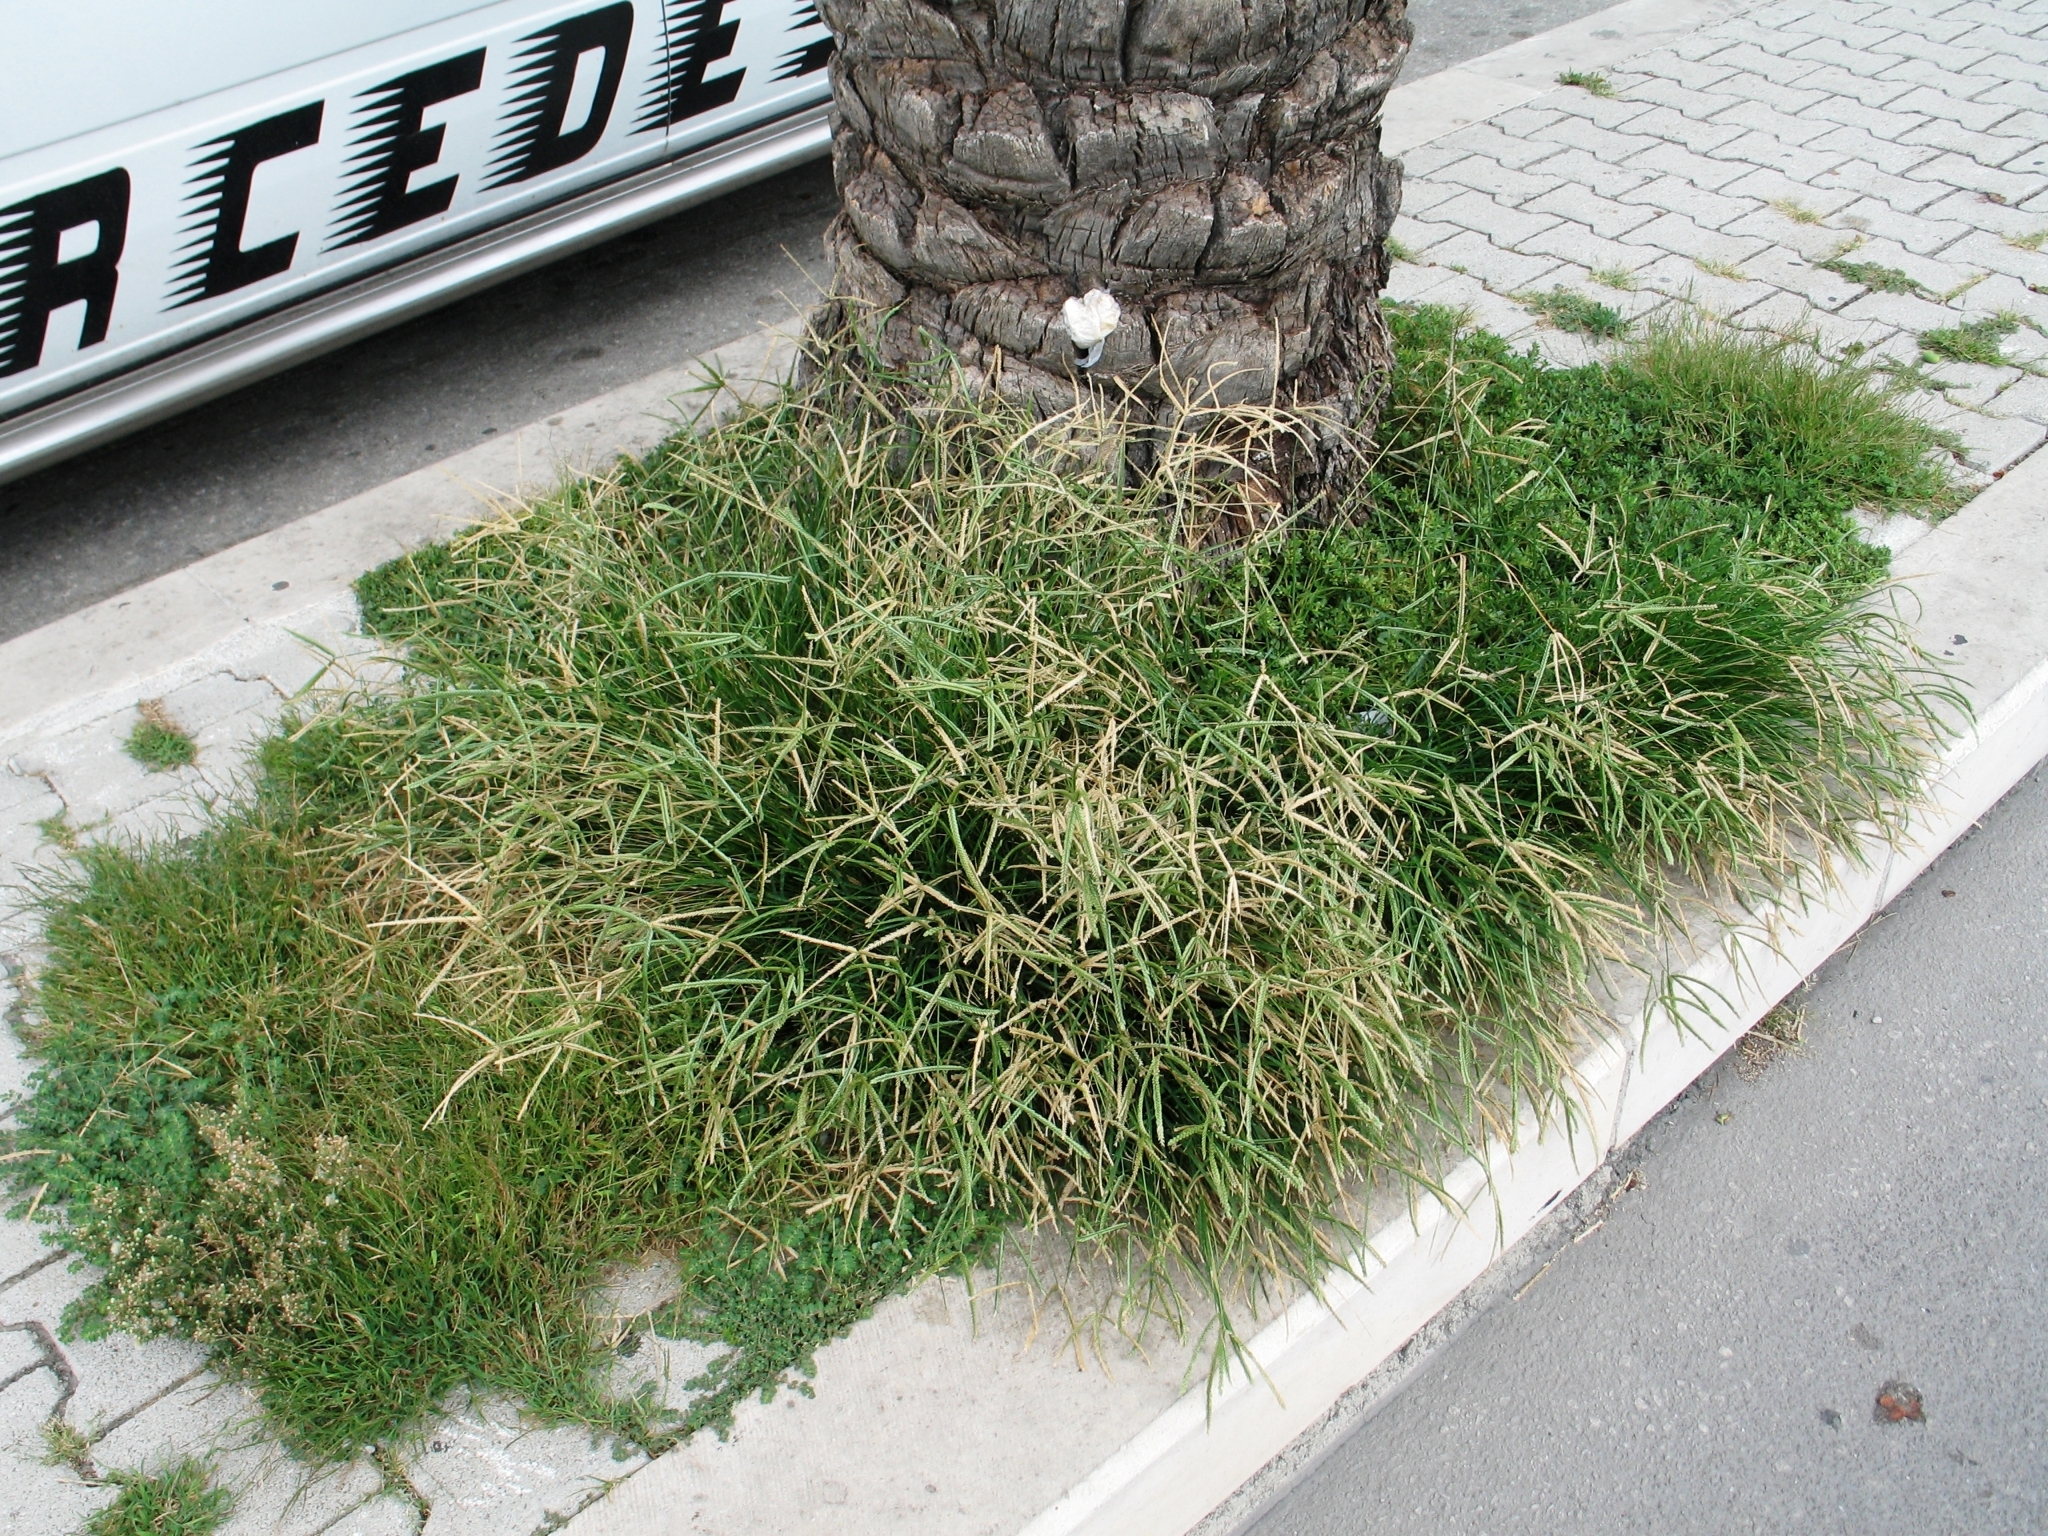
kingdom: Plantae
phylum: Tracheophyta
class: Liliopsida
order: Poales
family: Poaceae
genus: Paspalum
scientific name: Paspalum dilatatum
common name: Dallisgrass
